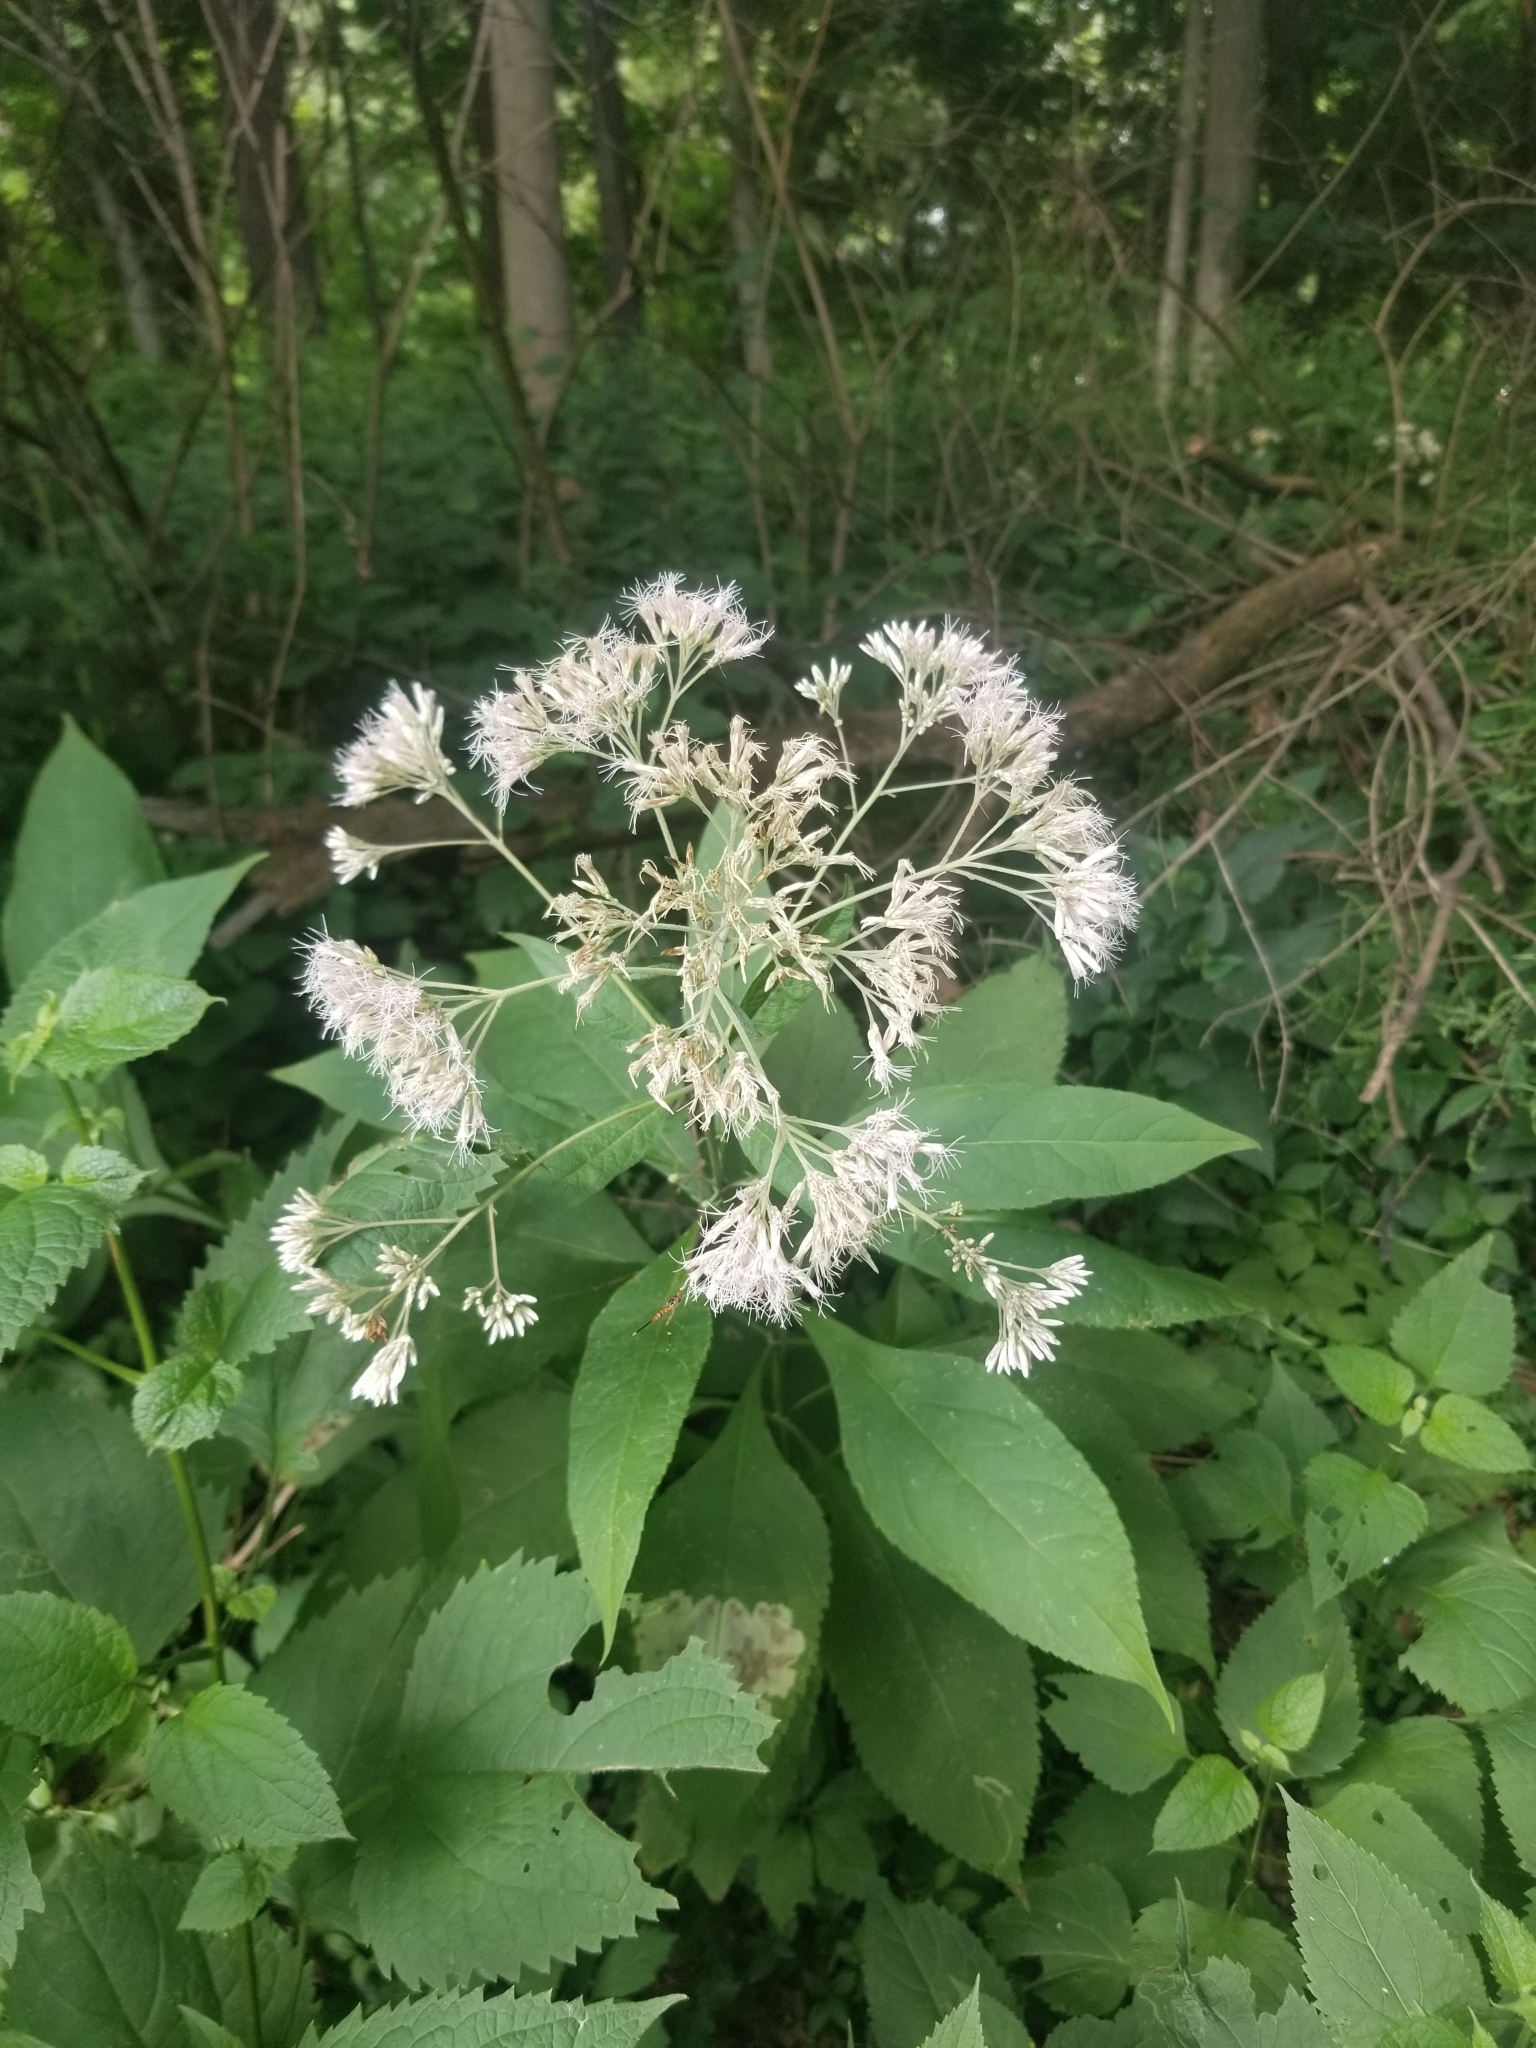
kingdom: Plantae
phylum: Tracheophyta
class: Magnoliopsida
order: Asterales
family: Asteraceae
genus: Eutrochium
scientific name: Eutrochium purpureum
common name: Gravelroot
